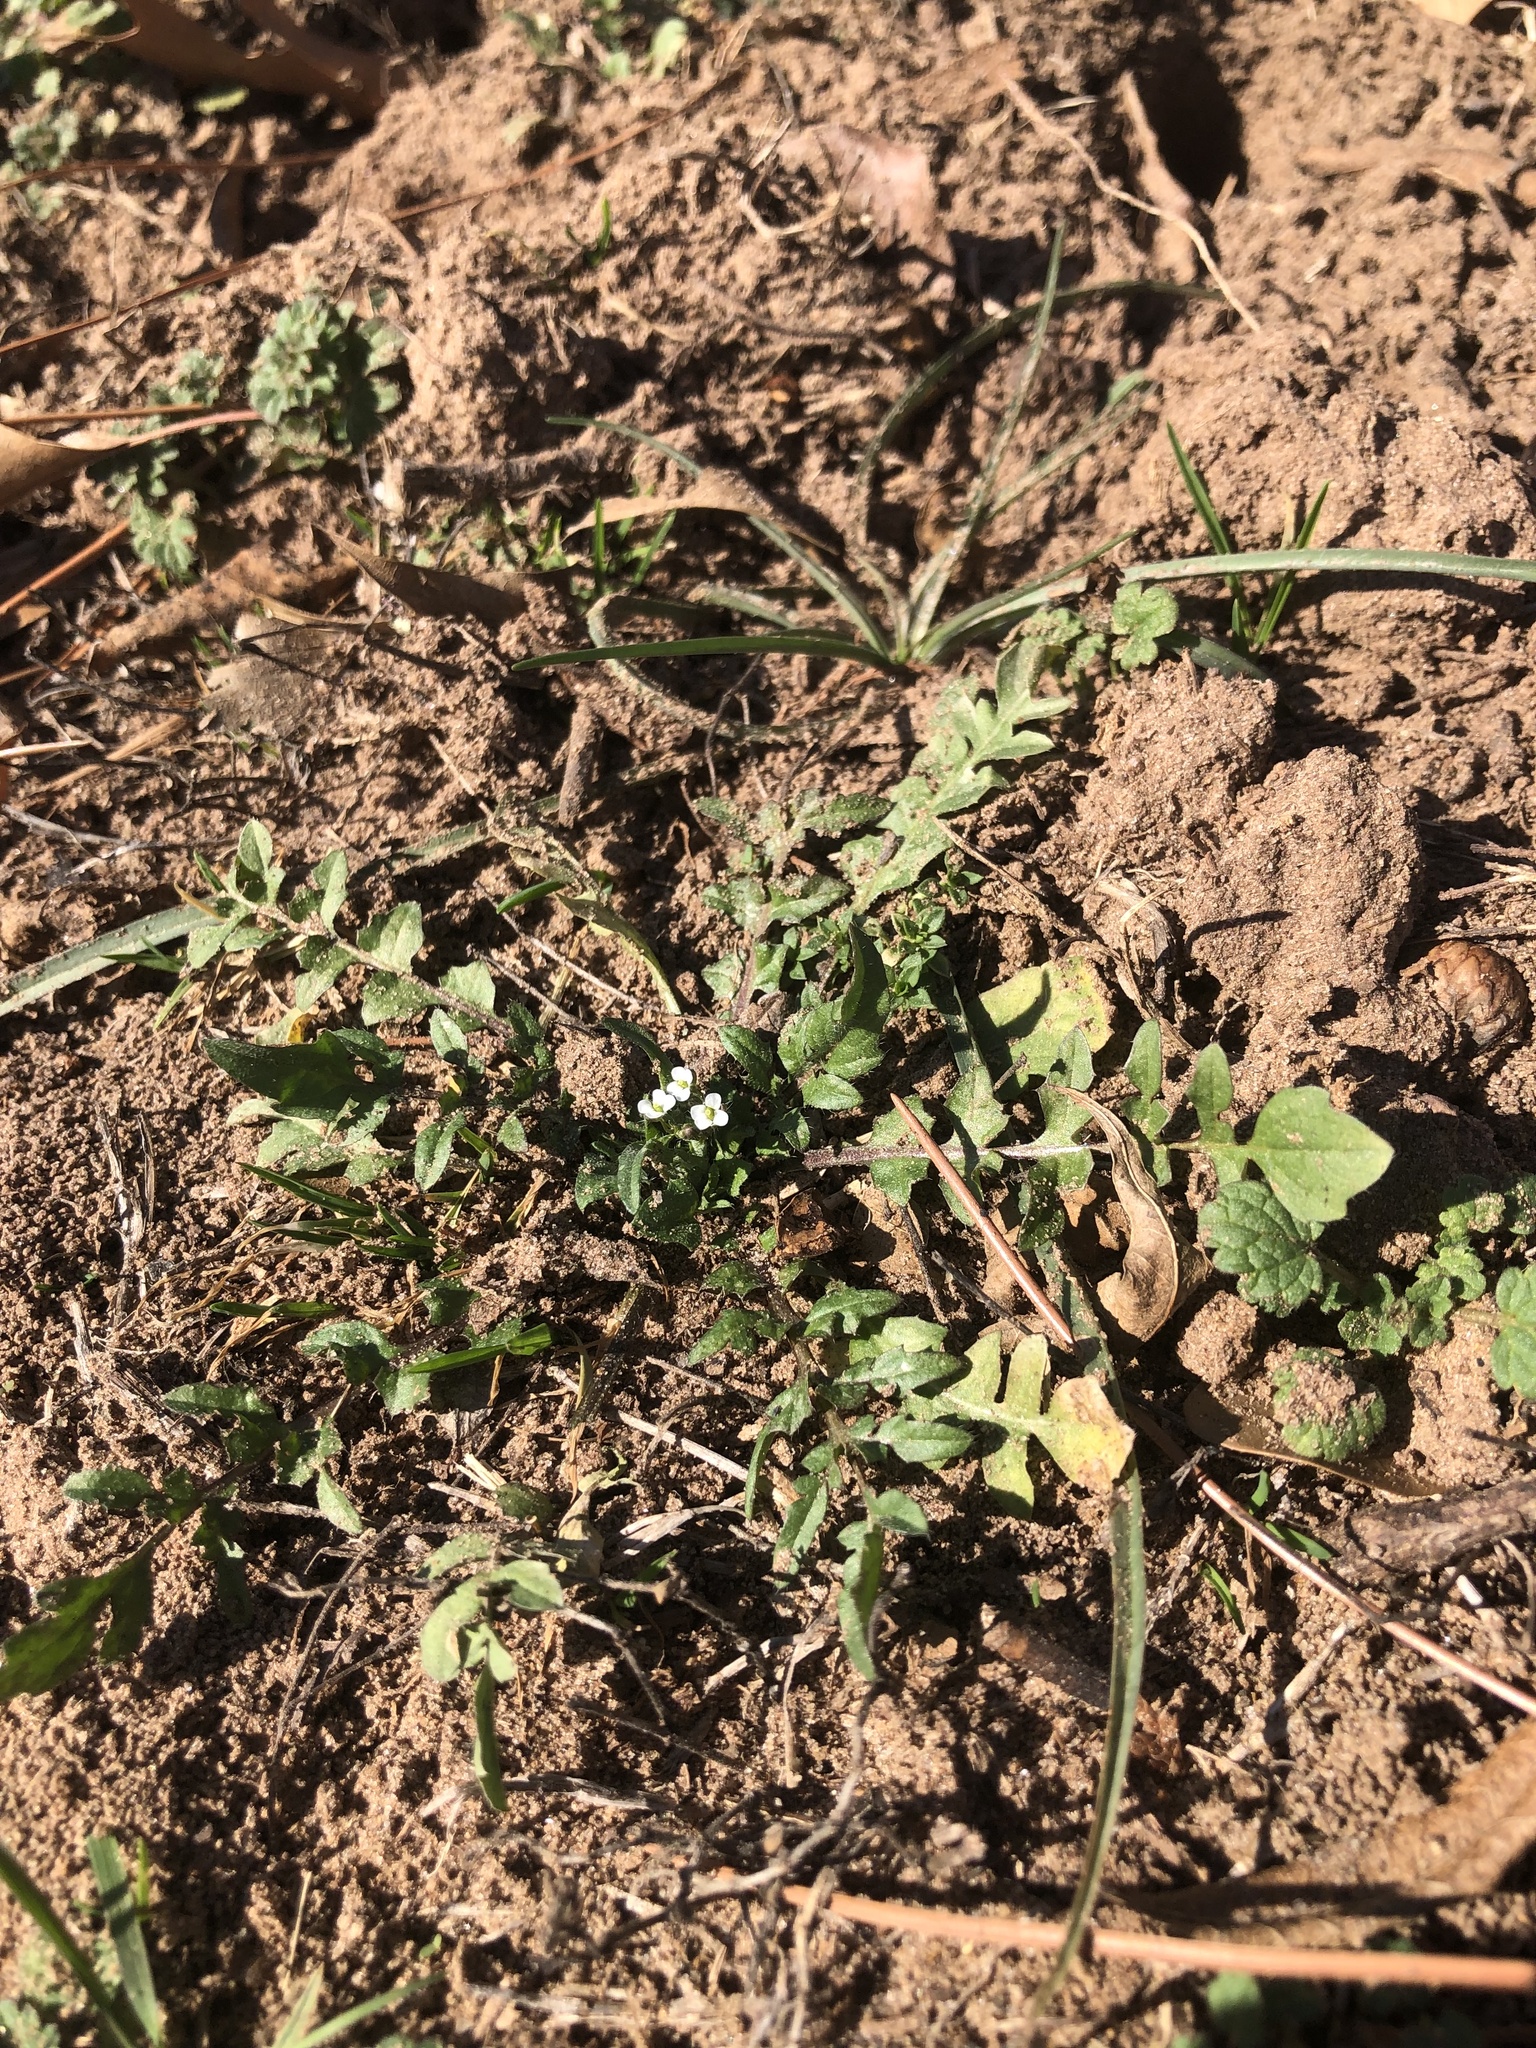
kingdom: Plantae
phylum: Tracheophyta
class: Magnoliopsida
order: Brassicales
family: Brassicaceae
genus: Capsella
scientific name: Capsella bursa-pastoris
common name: Shepherd's purse
